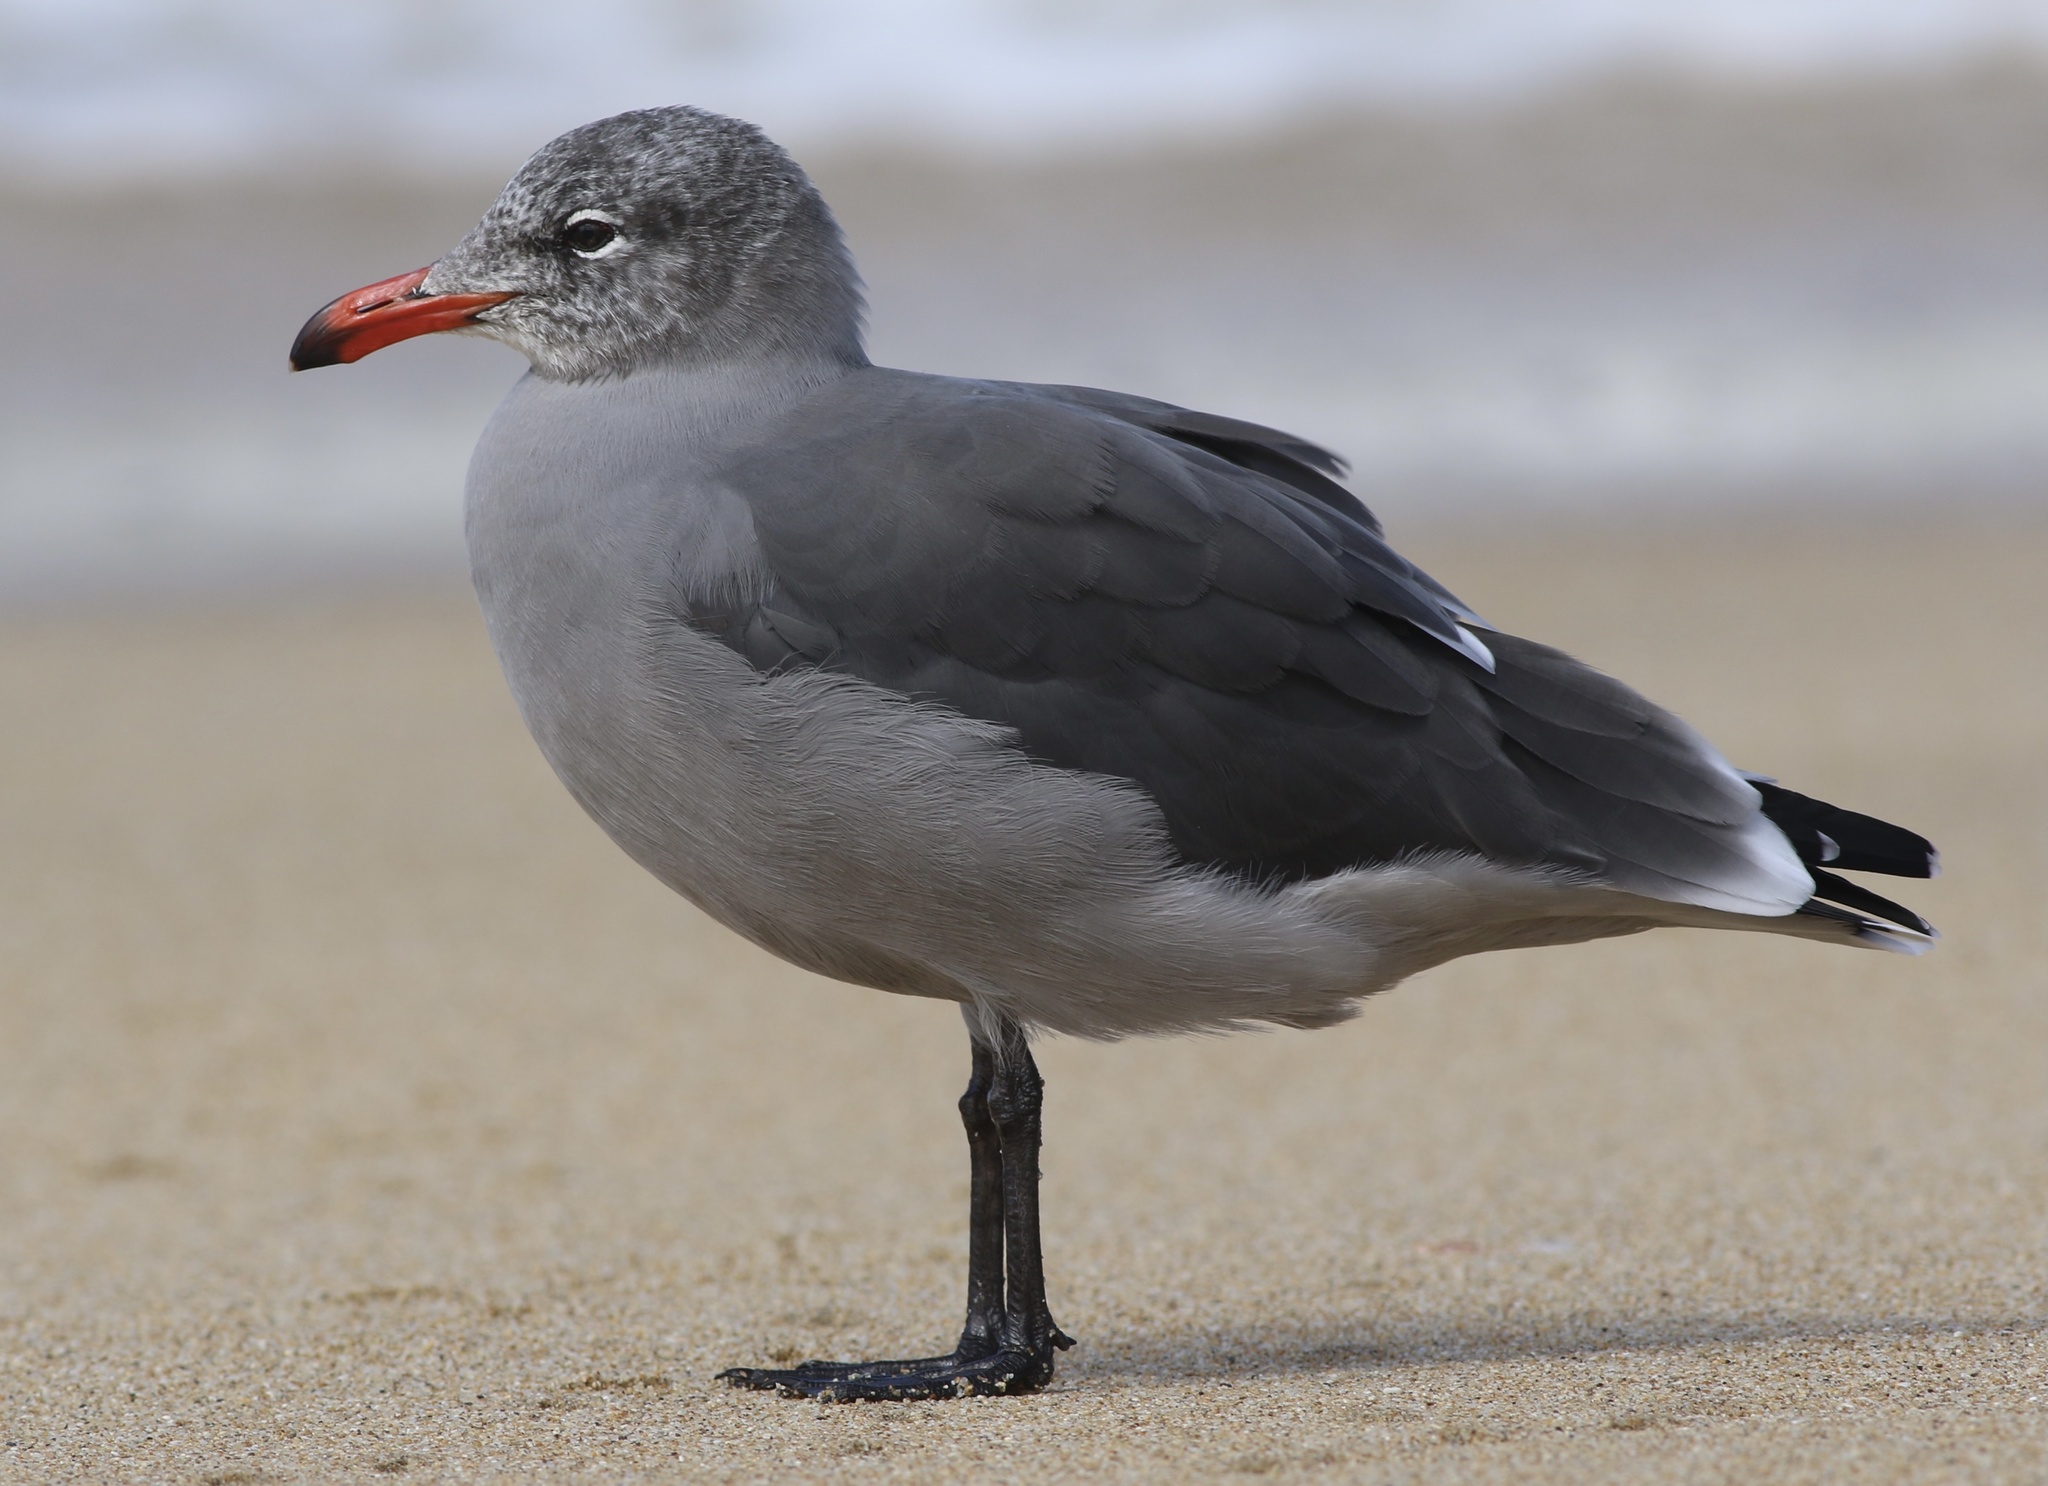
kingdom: Animalia
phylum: Chordata
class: Aves
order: Charadriiformes
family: Laridae
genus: Larus
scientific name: Larus heermanni
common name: Heermann's gull
